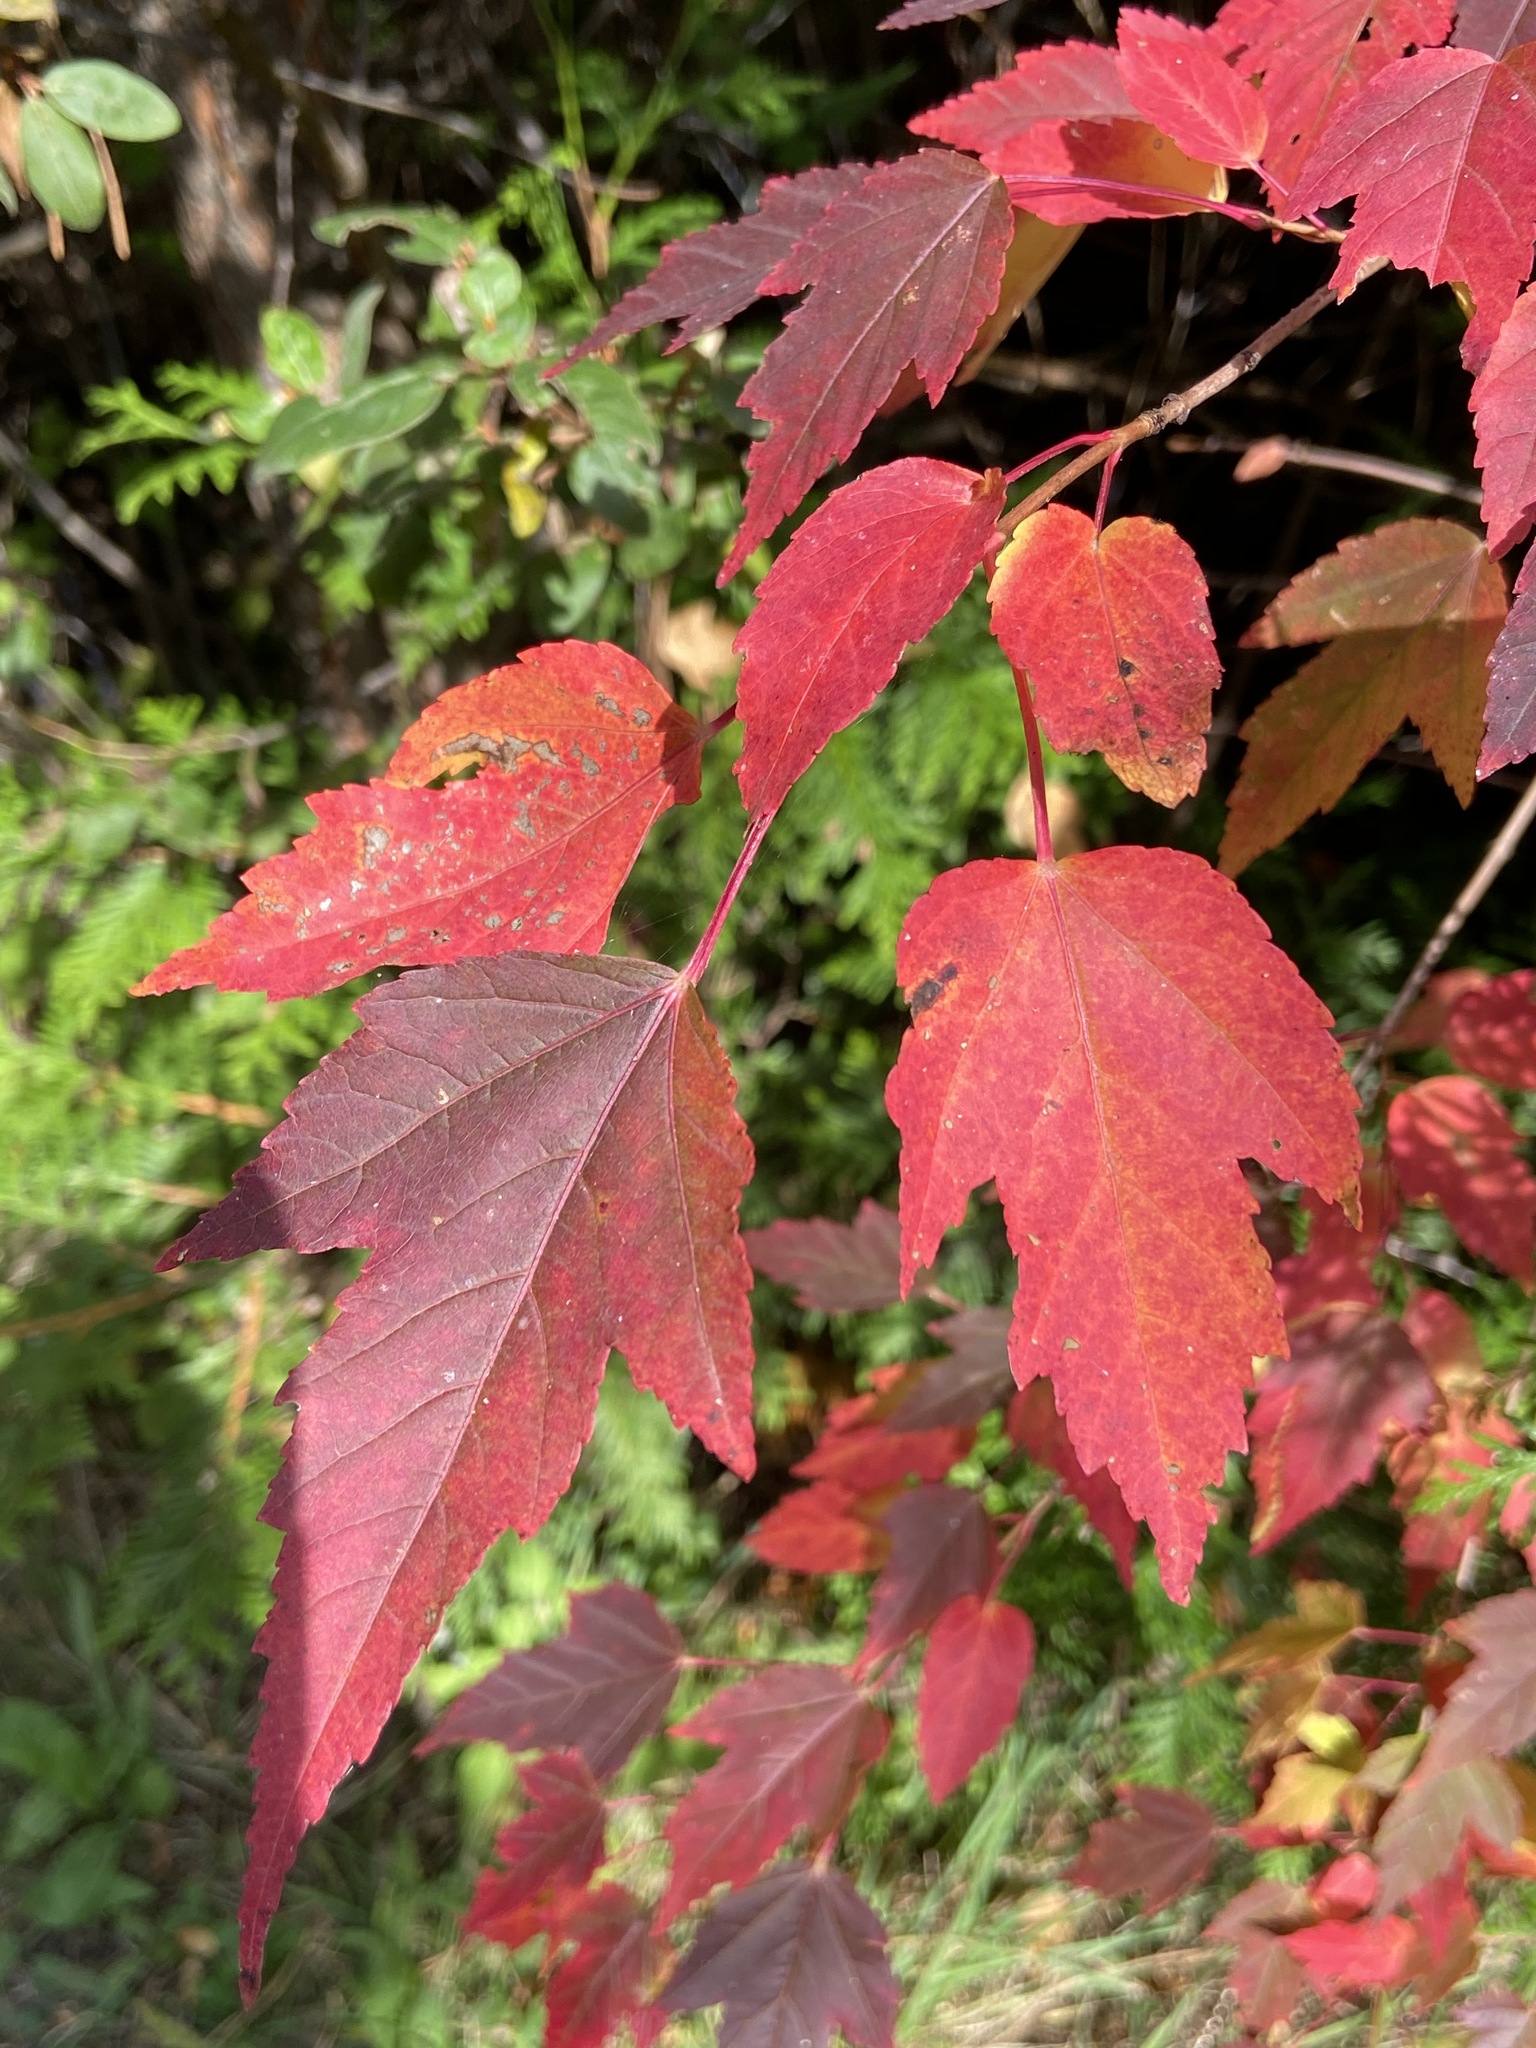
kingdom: Plantae
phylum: Tracheophyta
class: Magnoliopsida
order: Sapindales
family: Sapindaceae
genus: Acer
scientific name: Acer tataricum
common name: Tartar maple
